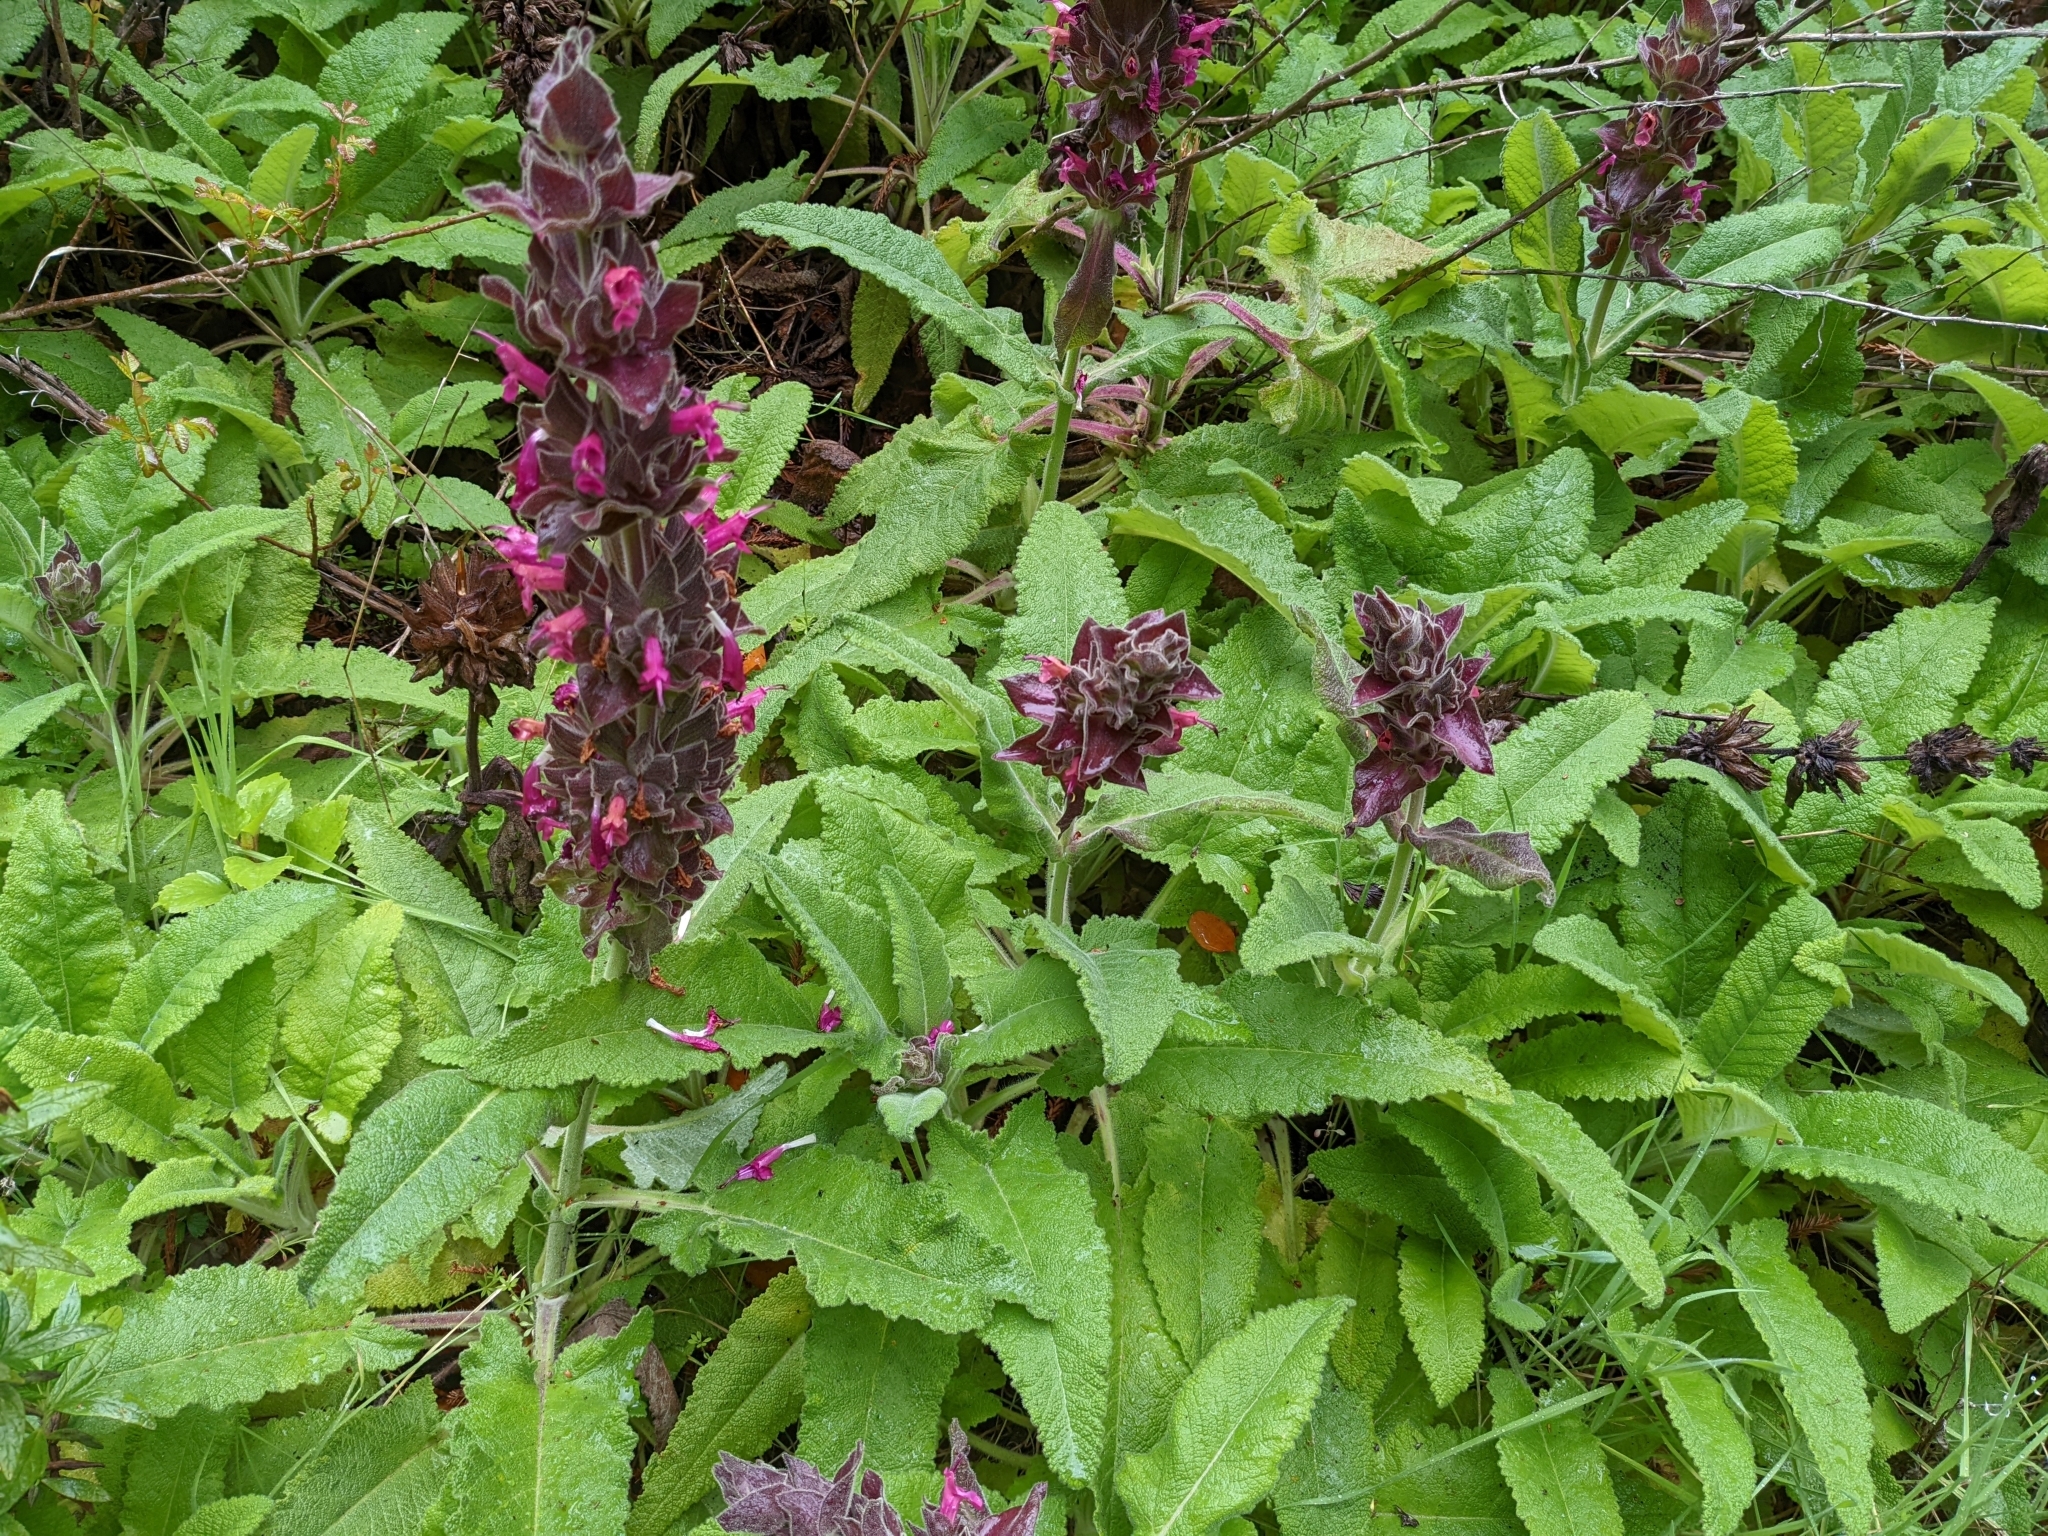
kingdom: Plantae
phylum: Tracheophyta
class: Magnoliopsida
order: Lamiales
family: Lamiaceae
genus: Salvia
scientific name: Salvia spathacea
